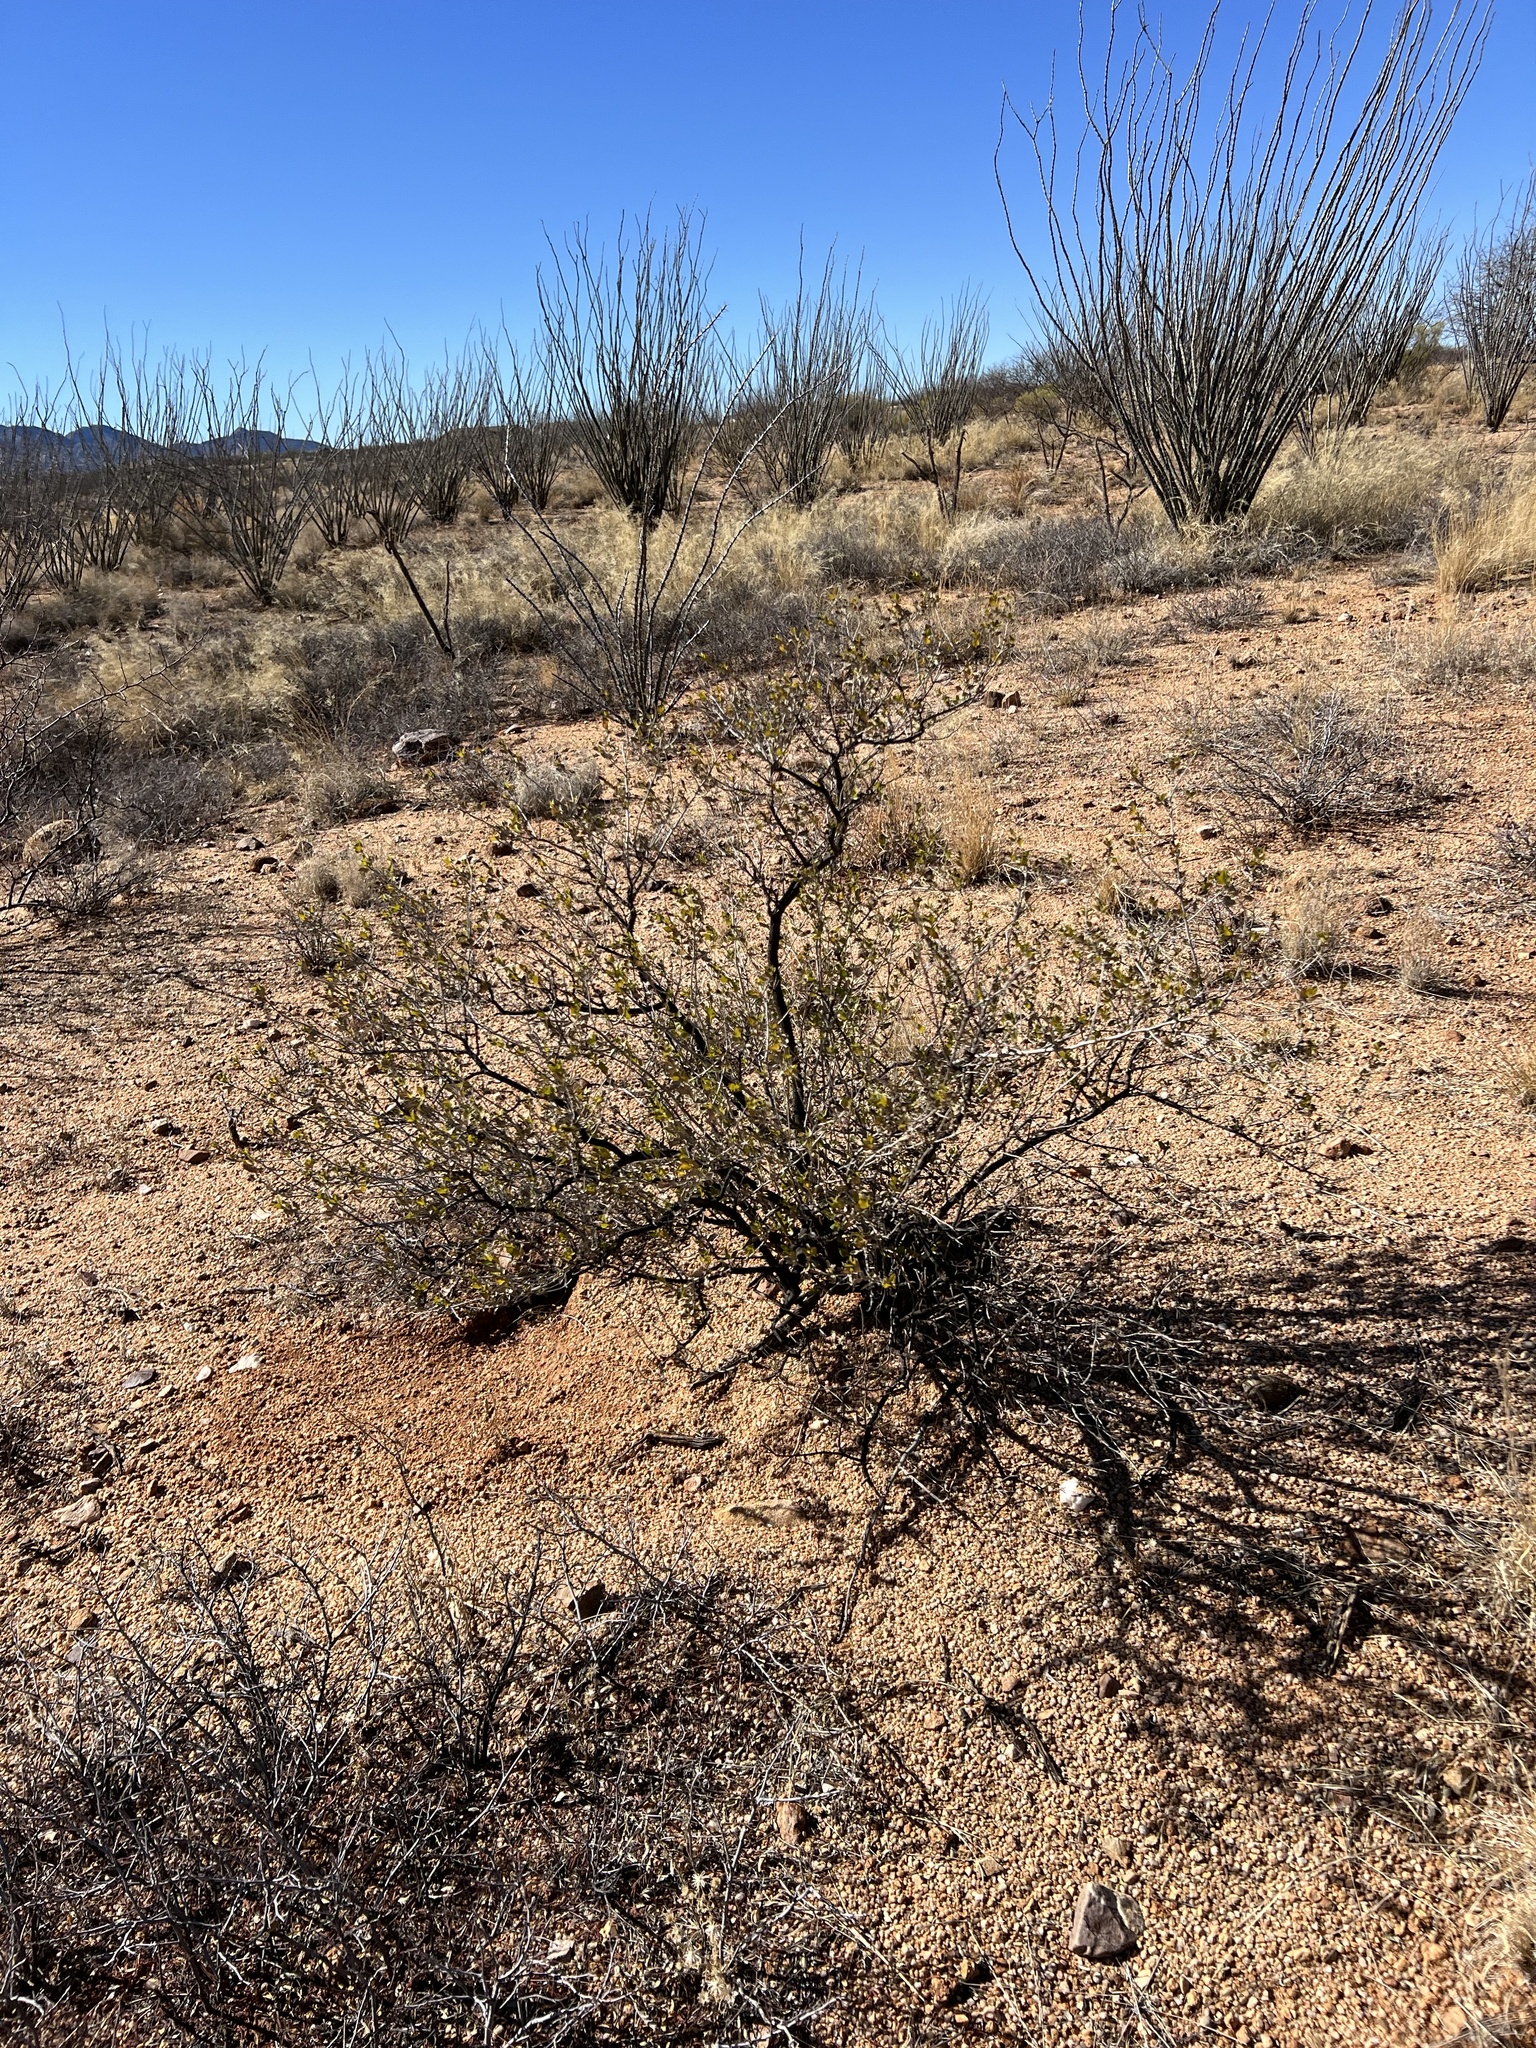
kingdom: Plantae
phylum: Tracheophyta
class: Magnoliopsida
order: Asterales
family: Asteraceae
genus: Flourensia
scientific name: Flourensia cernua
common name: Varnishbush
